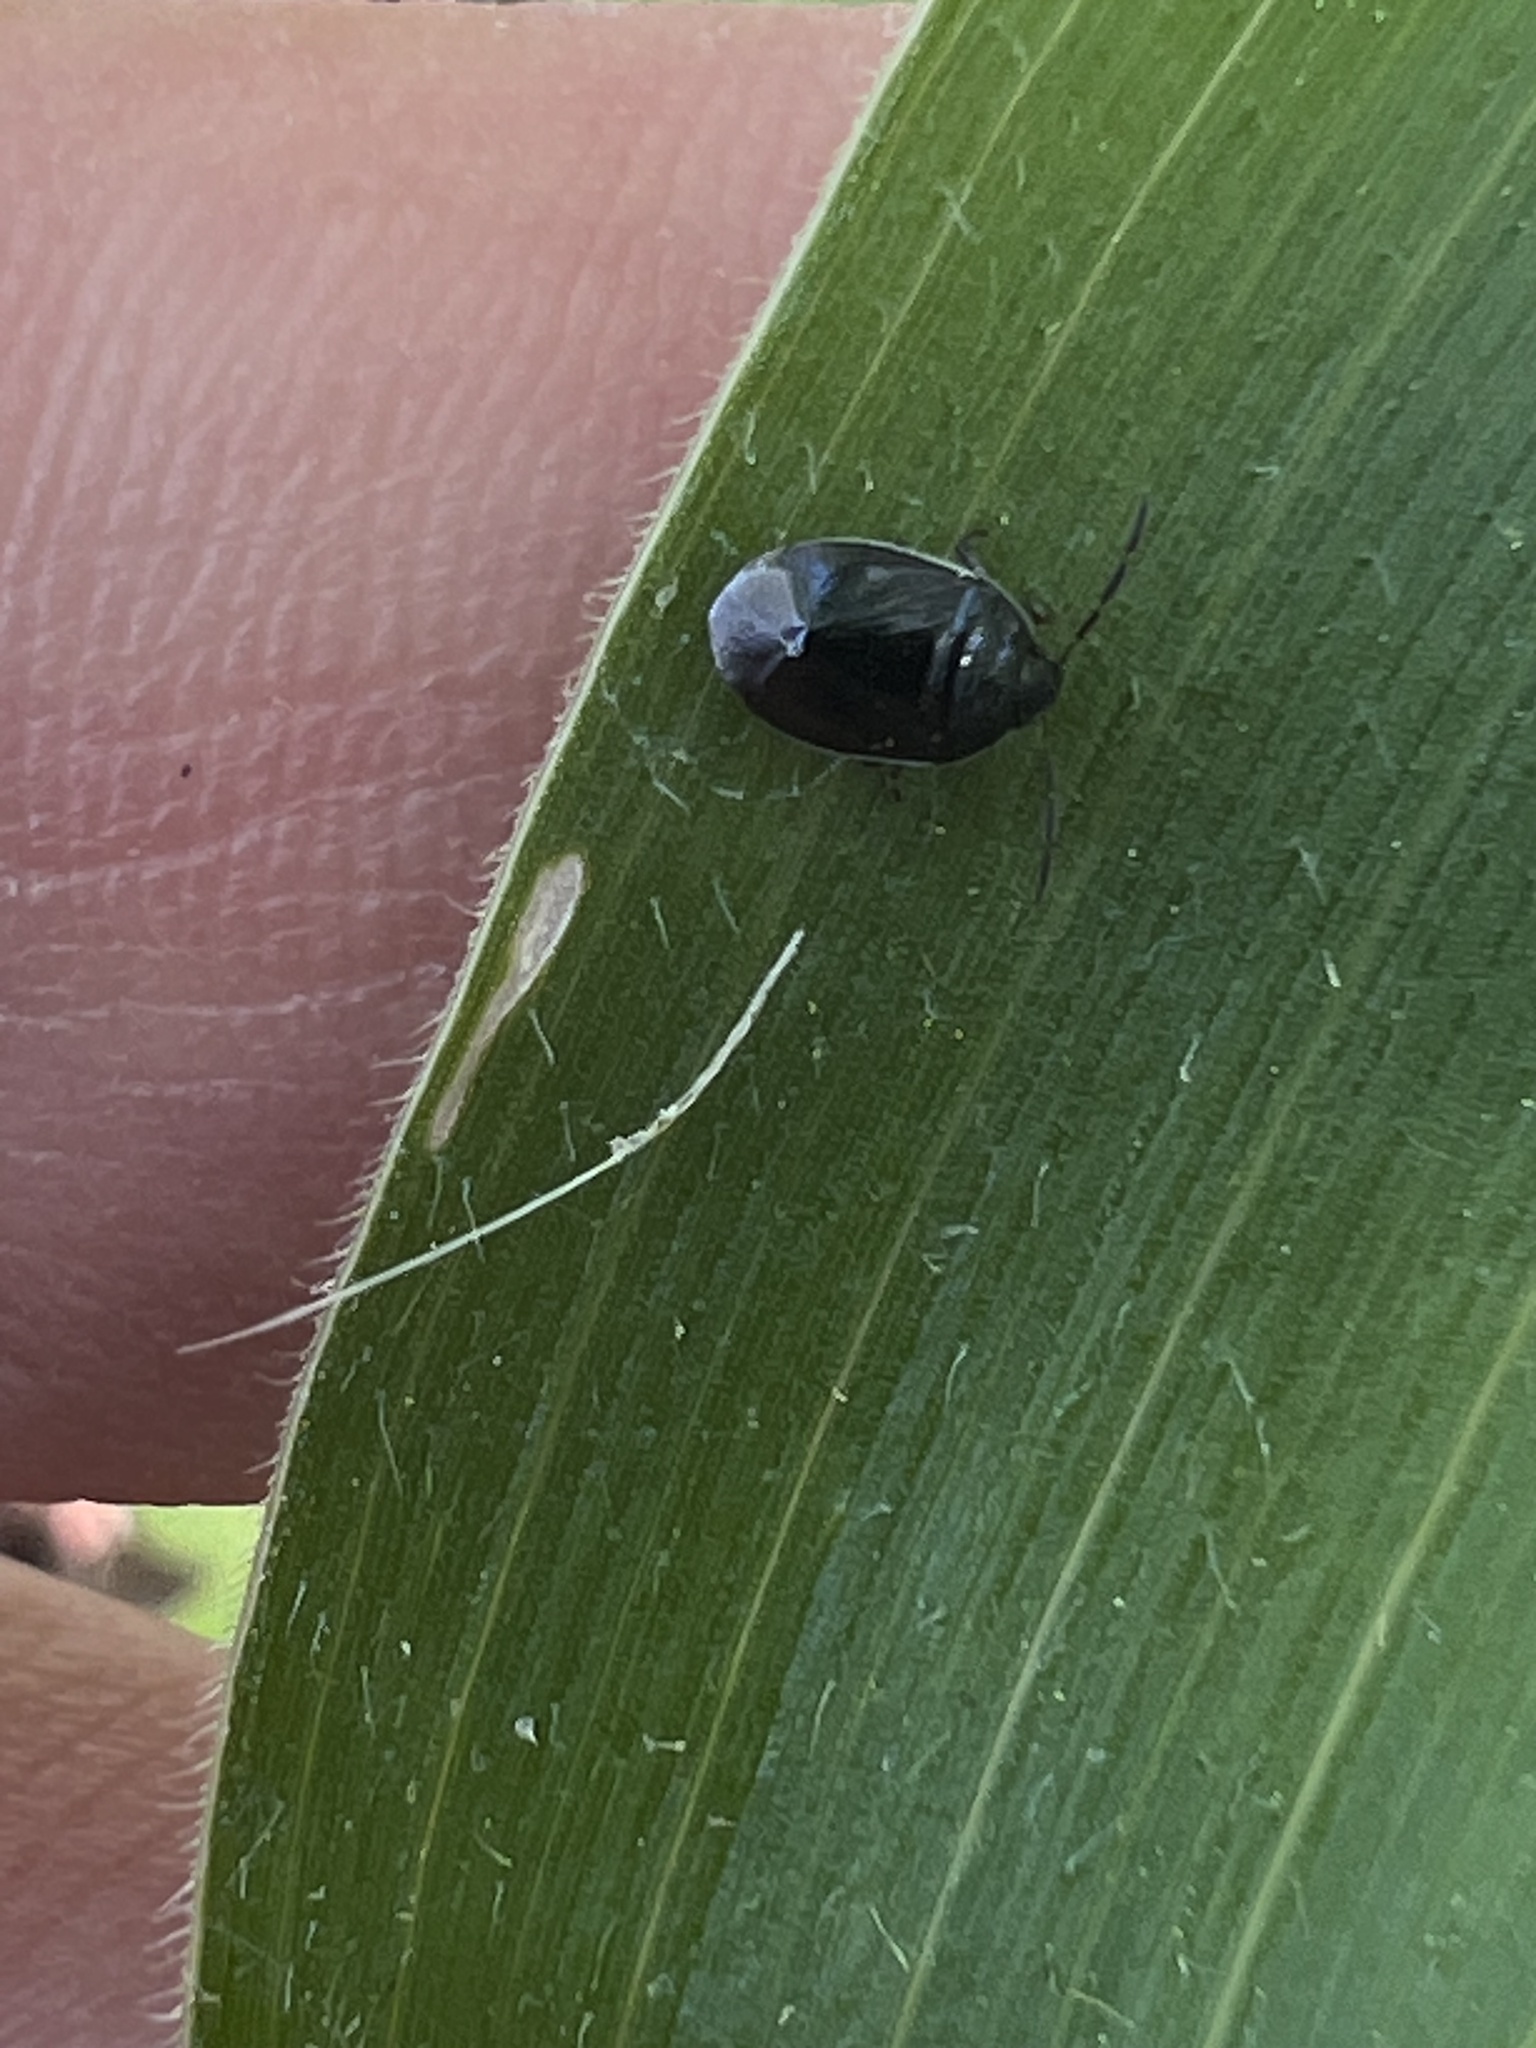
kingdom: Animalia
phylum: Arthropoda
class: Insecta
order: Hemiptera
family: Cydnidae
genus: Sehirus
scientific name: Sehirus cinctus
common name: White-margined burrower bug
